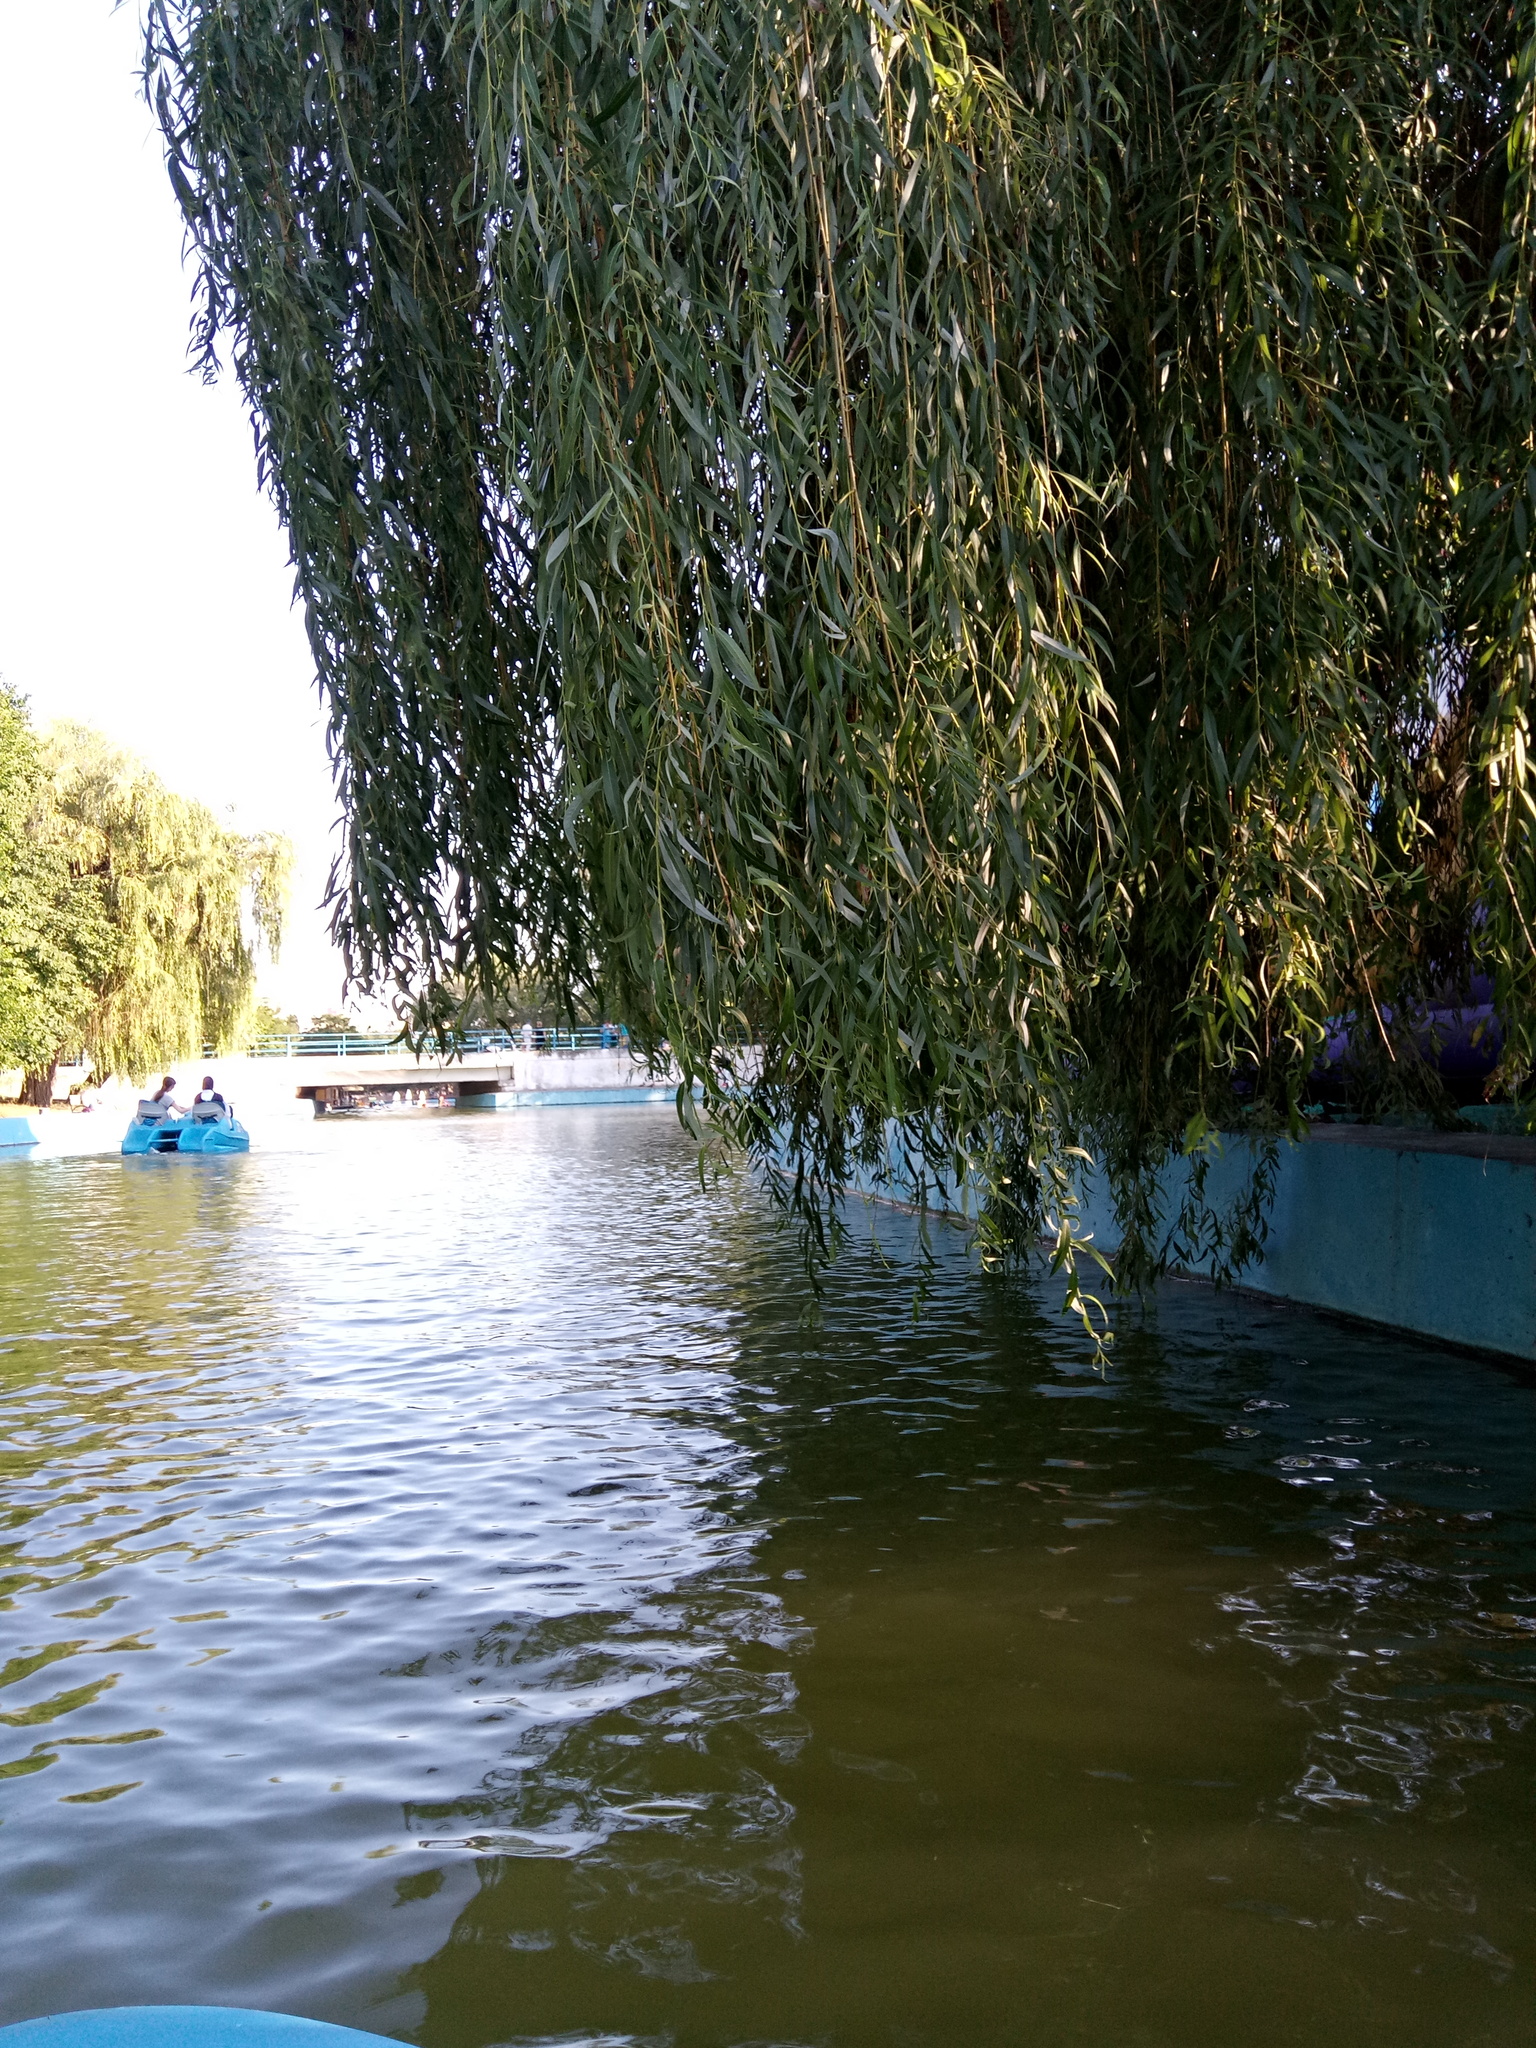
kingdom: Plantae
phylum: Tracheophyta
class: Magnoliopsida
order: Malpighiales
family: Salicaceae
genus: Salix
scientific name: Salix pendulina
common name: Wisconsin weeping willow
